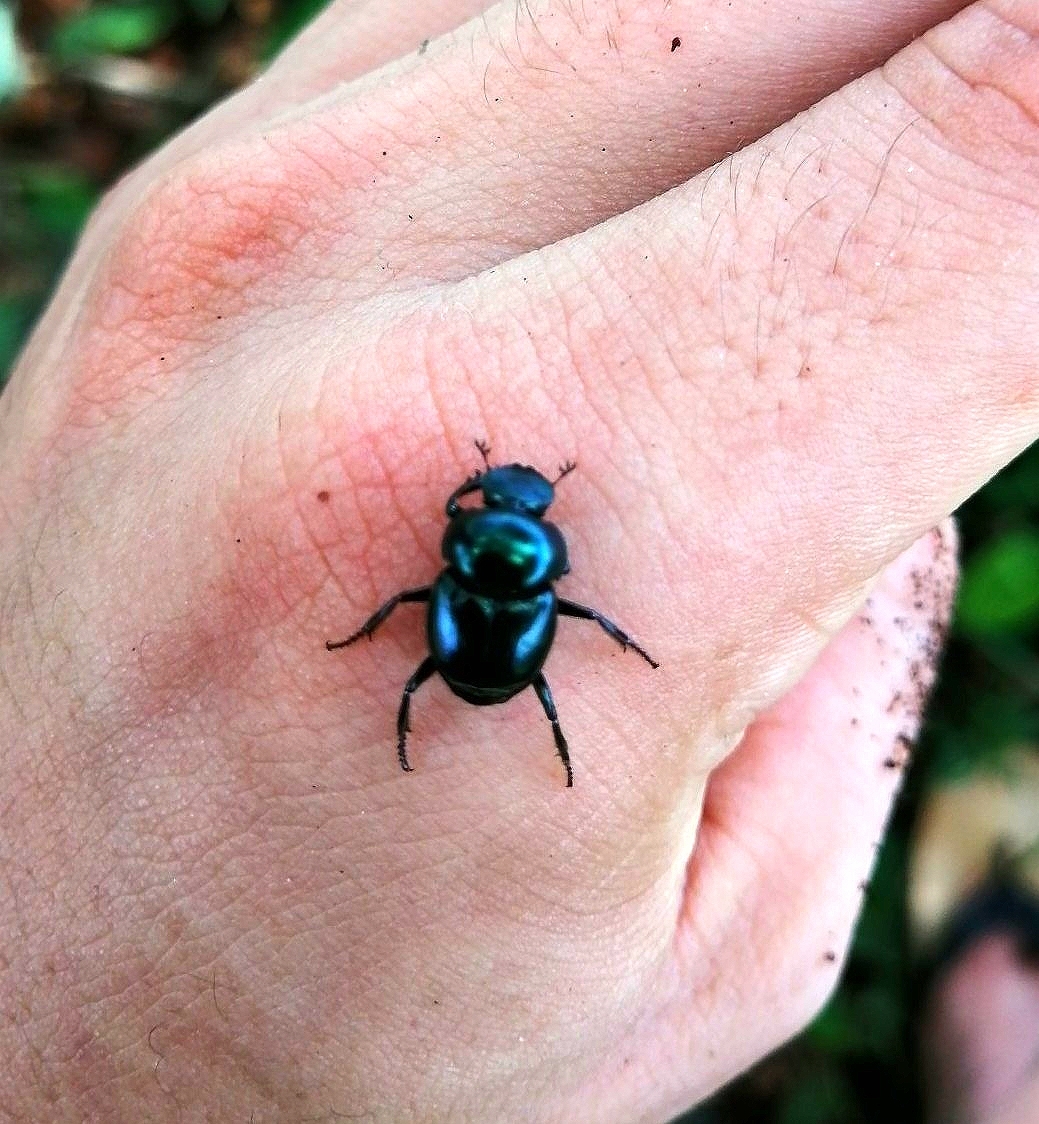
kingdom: Animalia
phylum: Arthropoda
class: Insecta
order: Coleoptera
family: Scarabaeidae
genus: Canthon
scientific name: Canthon indigaceus
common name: Tumblebug
